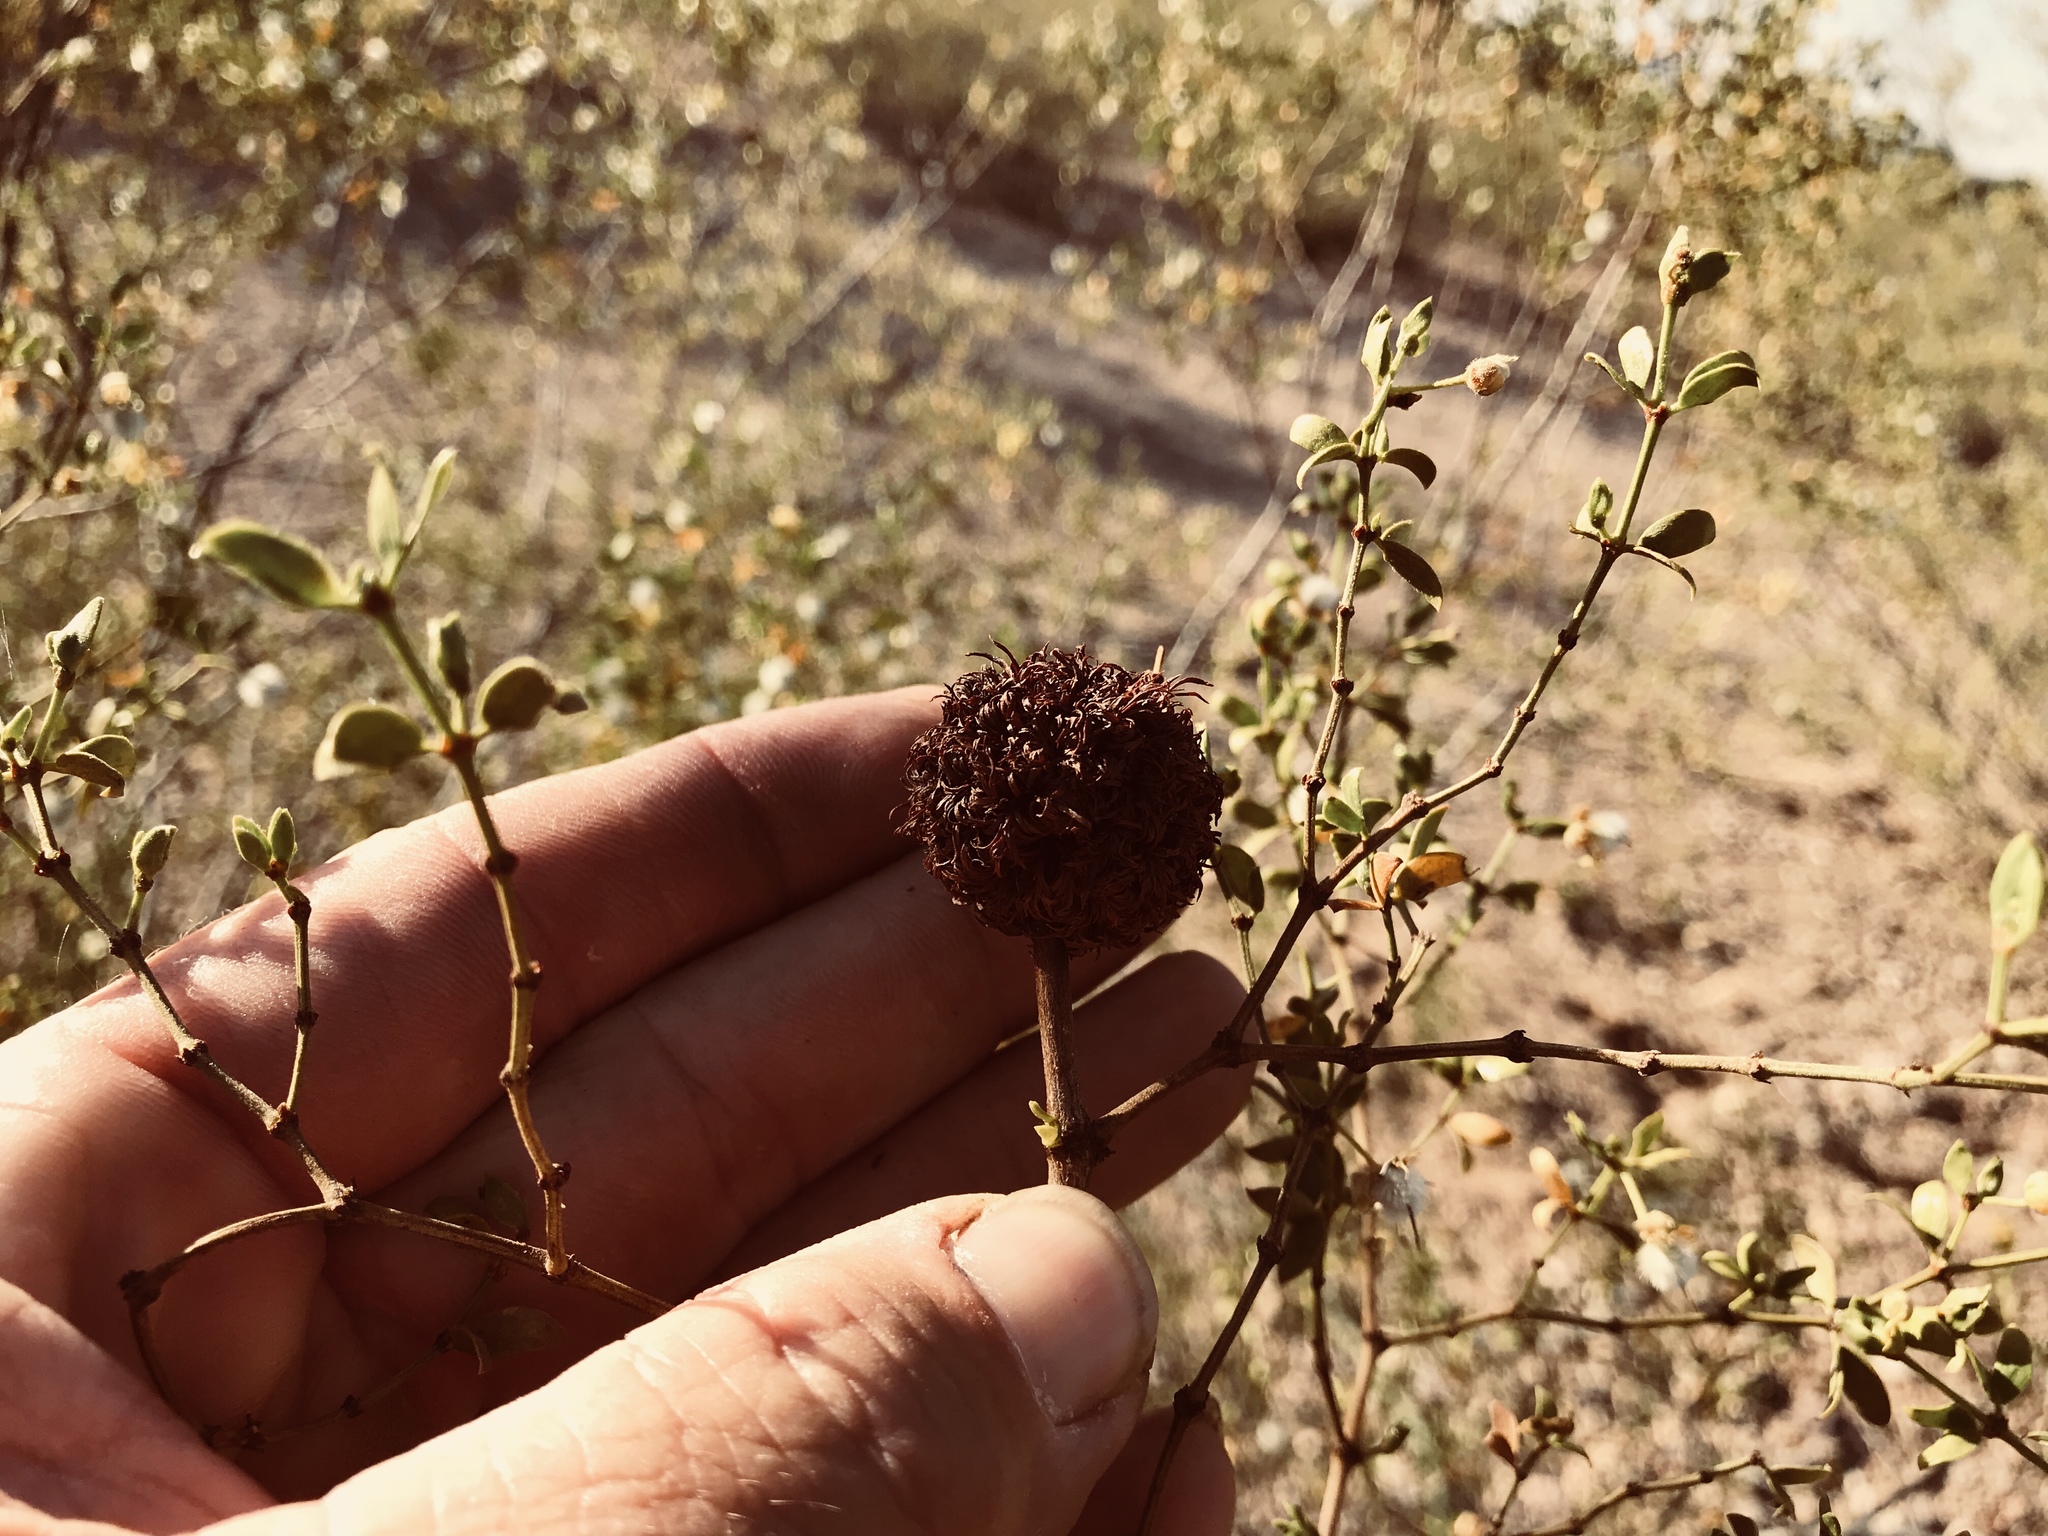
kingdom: Animalia
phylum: Arthropoda
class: Insecta
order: Diptera
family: Cecidomyiidae
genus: Asphondylia
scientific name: Asphondylia auripila
